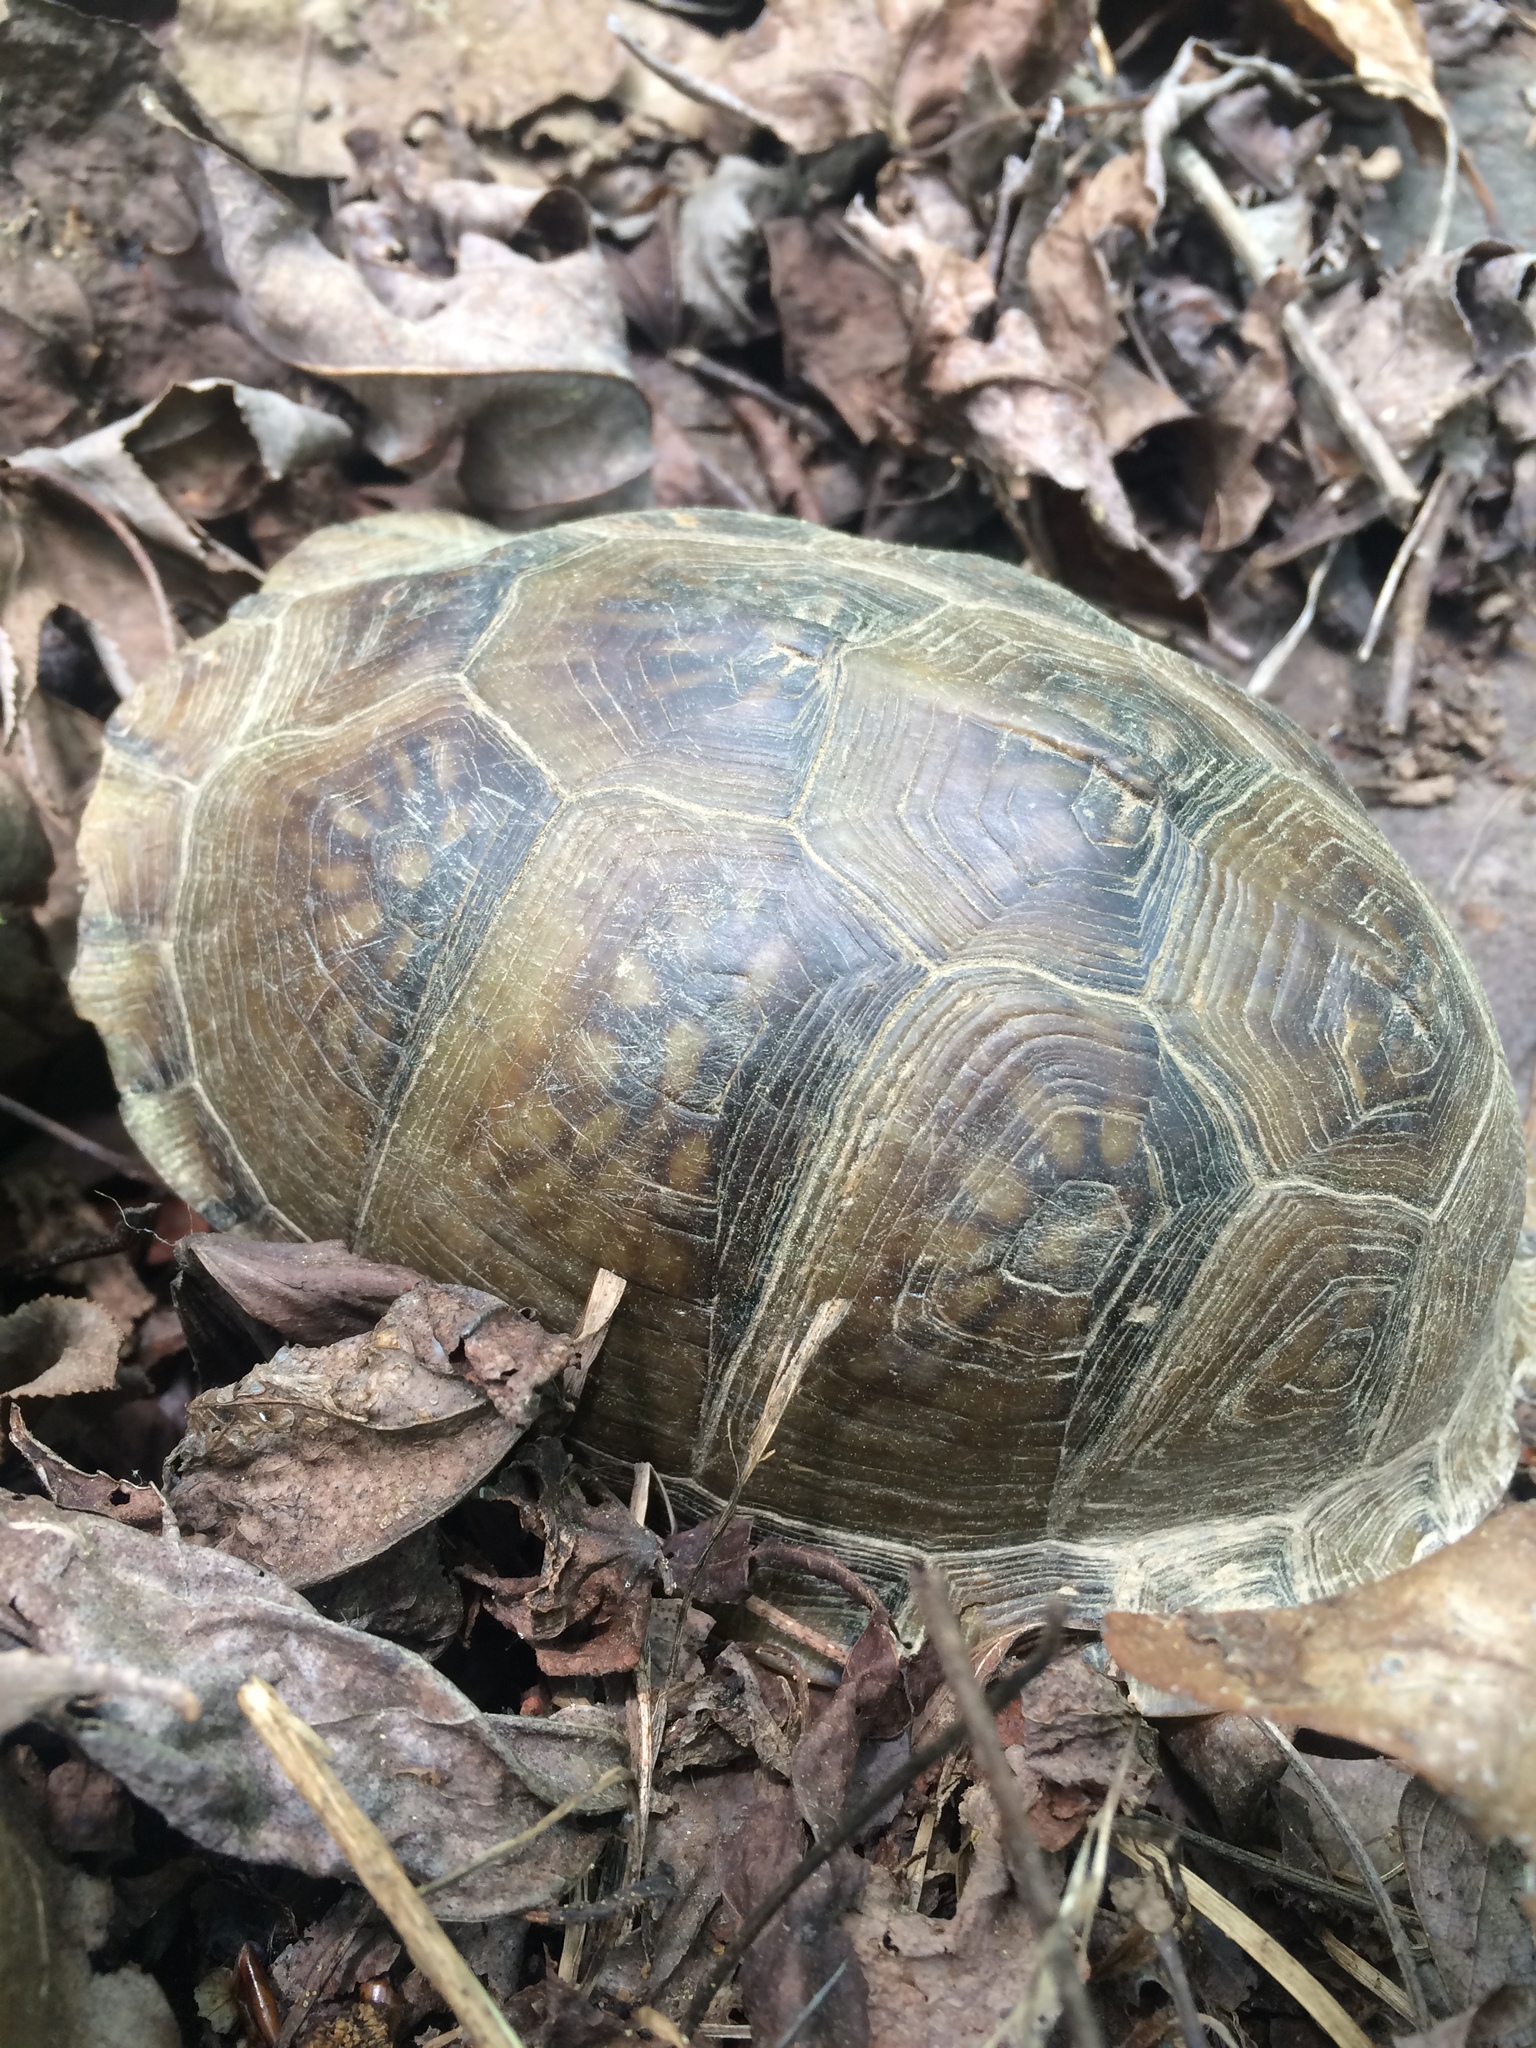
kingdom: Animalia
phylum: Chordata
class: Testudines
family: Emydidae
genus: Terrapene
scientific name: Terrapene carolina
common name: Common box turtle
